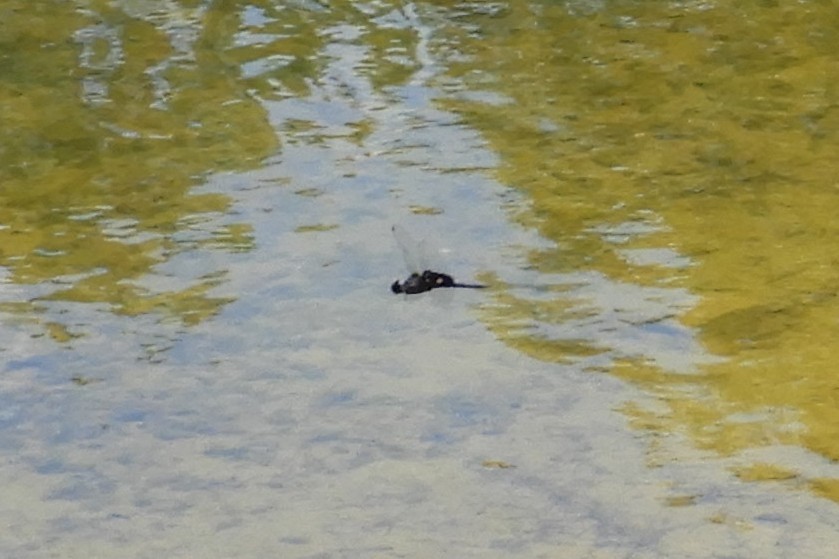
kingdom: Animalia
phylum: Arthropoda
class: Insecta
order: Odonata
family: Libellulidae
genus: Tramea
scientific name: Tramea lacerata
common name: Black saddlebags
